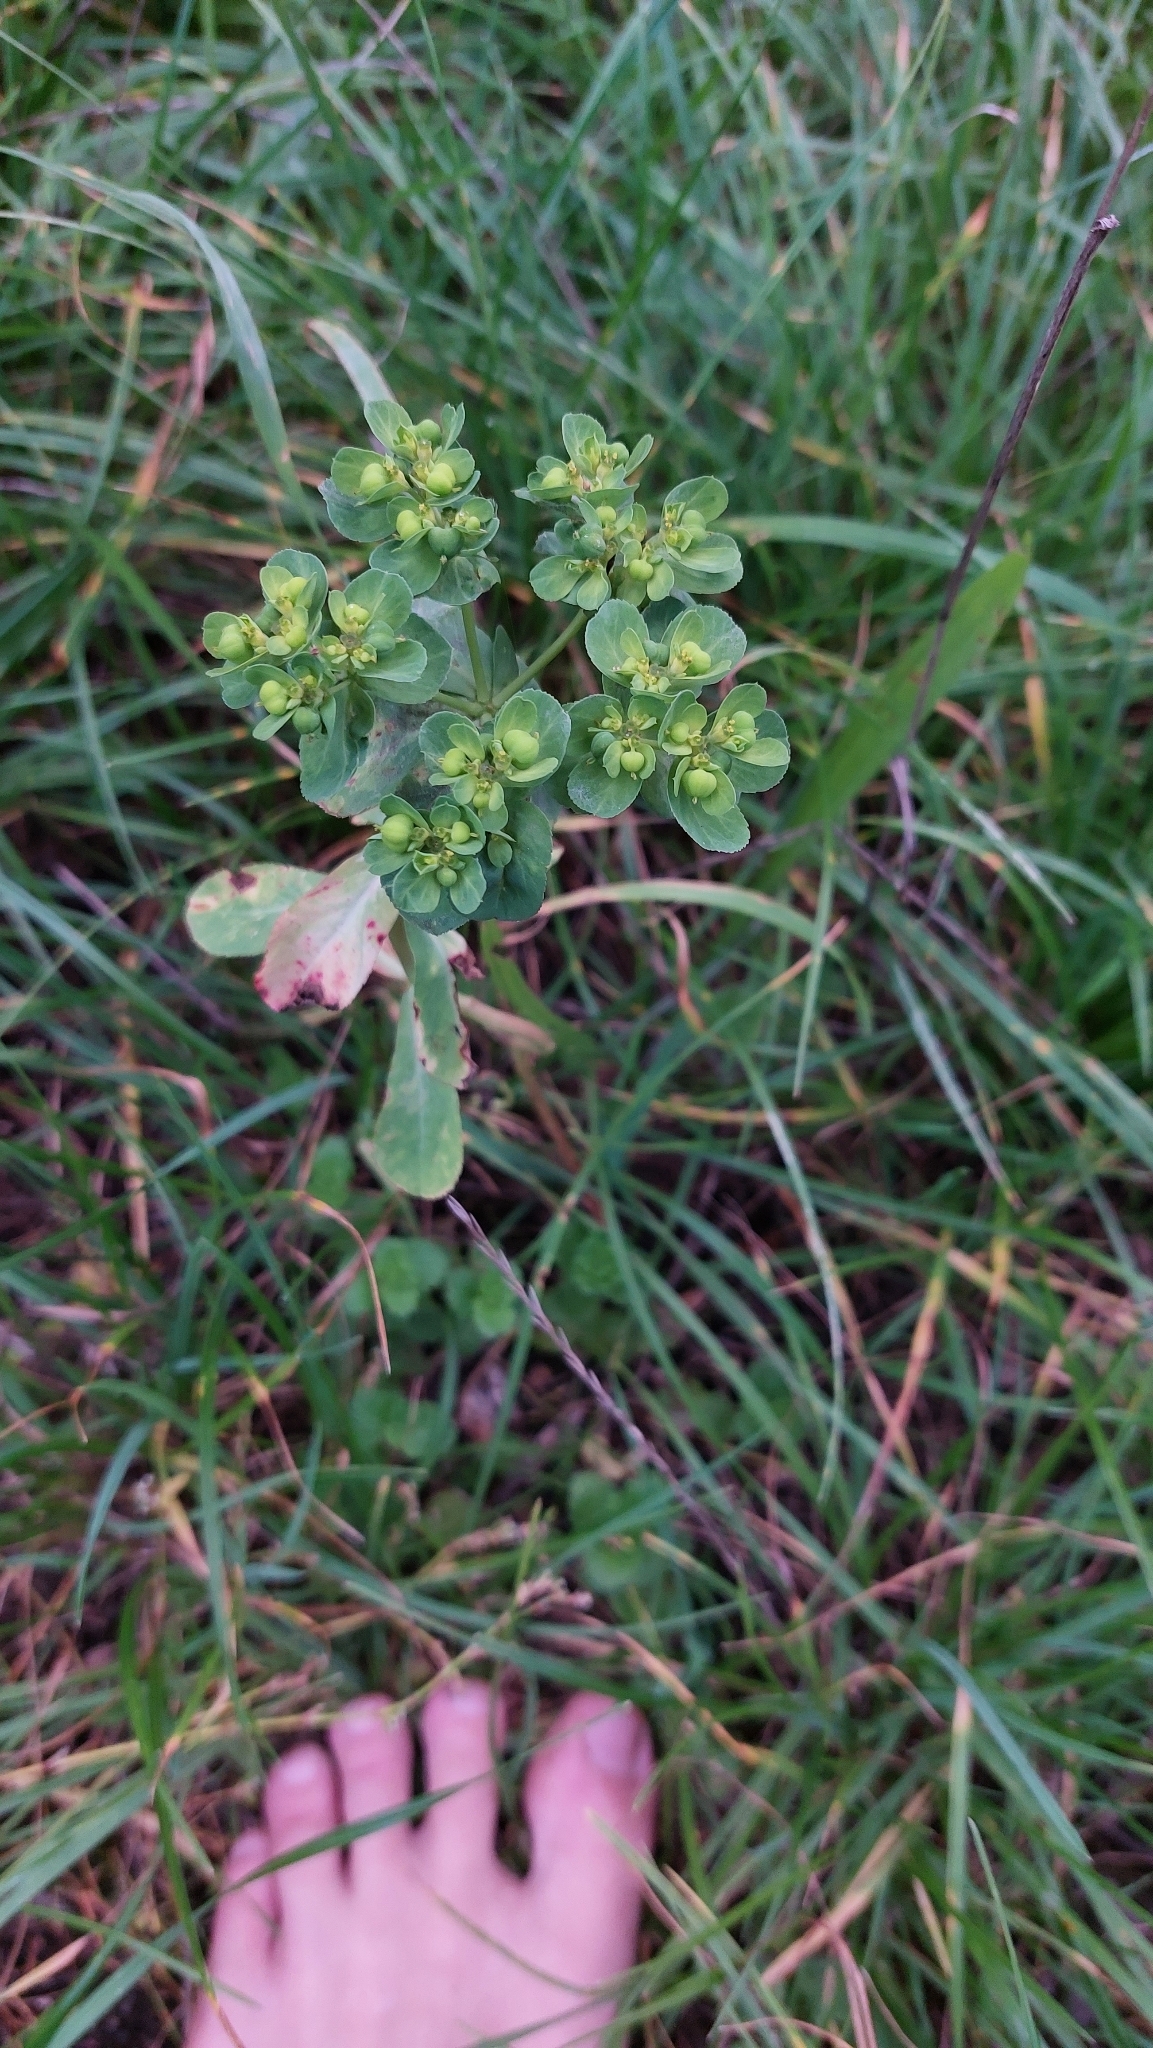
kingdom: Plantae
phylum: Tracheophyta
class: Magnoliopsida
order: Malpighiales
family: Euphorbiaceae
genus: Euphorbia
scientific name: Euphorbia helioscopia
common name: Sun spurge
